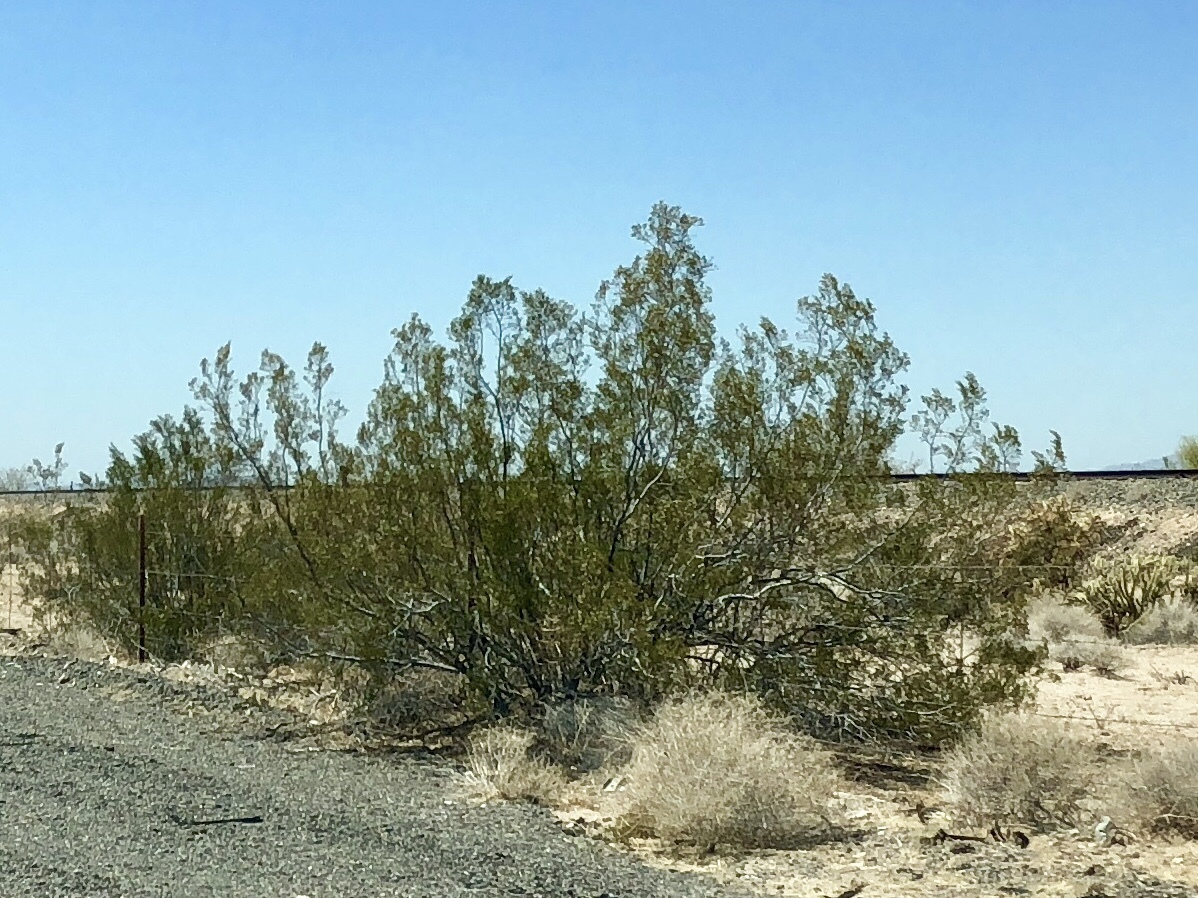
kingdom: Plantae
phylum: Tracheophyta
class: Magnoliopsida
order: Zygophyllales
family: Zygophyllaceae
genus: Larrea
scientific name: Larrea tridentata
